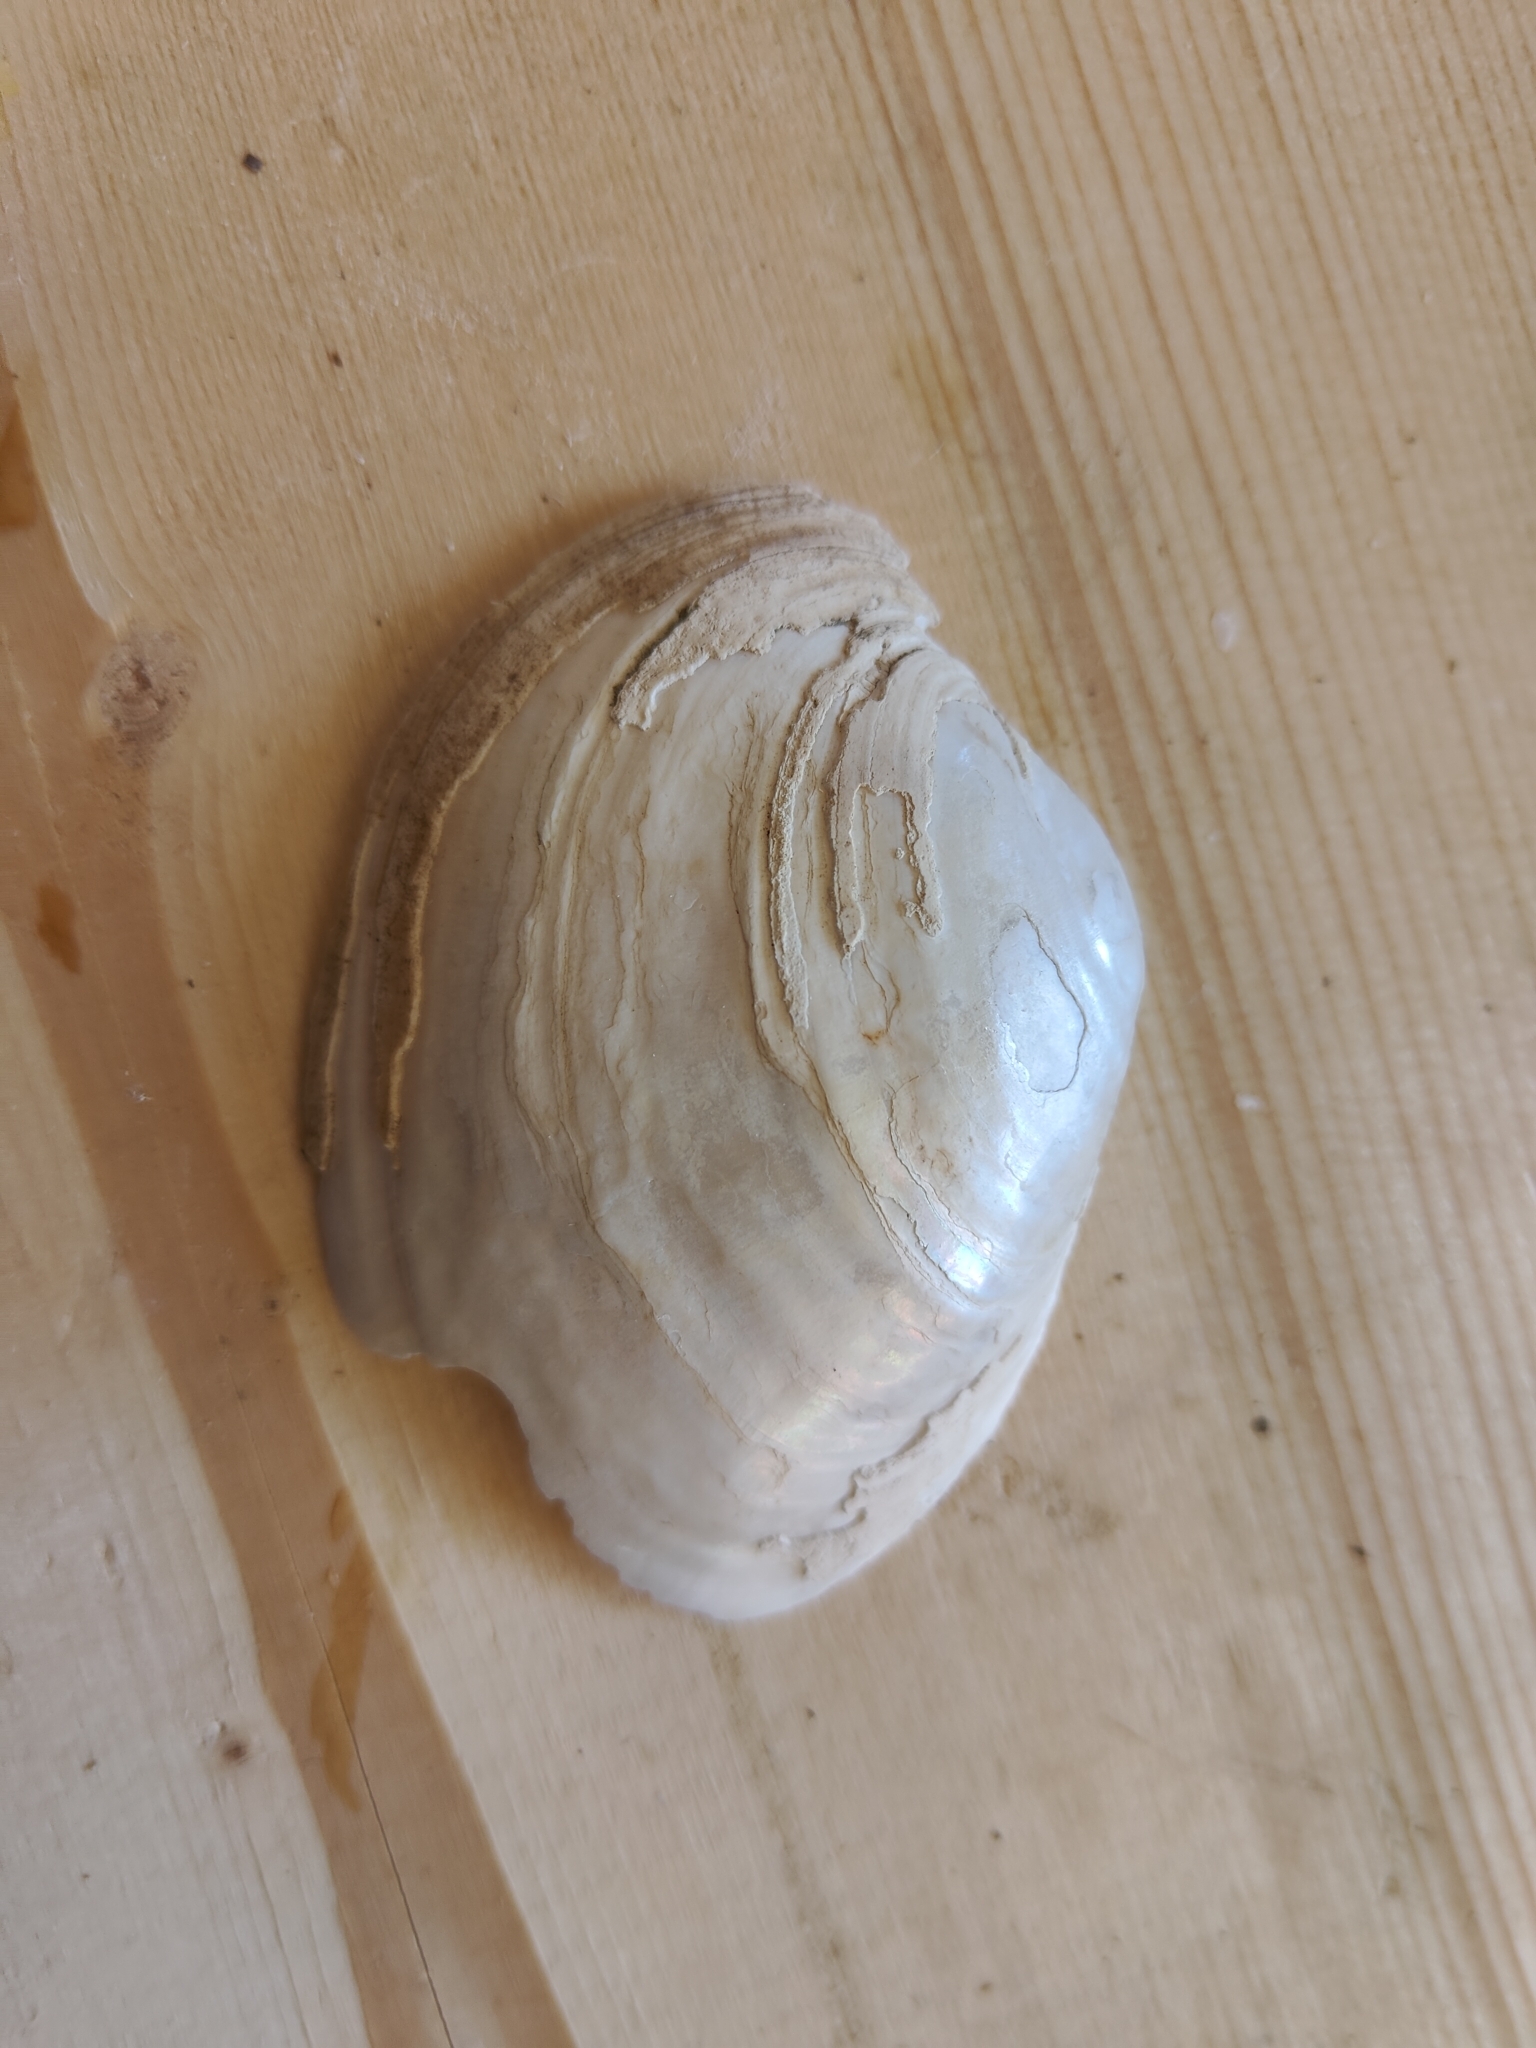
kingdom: Animalia
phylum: Mollusca
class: Bivalvia
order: Unionida
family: Unionidae
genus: Lampsilis
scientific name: Lampsilis cardium
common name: Plain pocketbook
